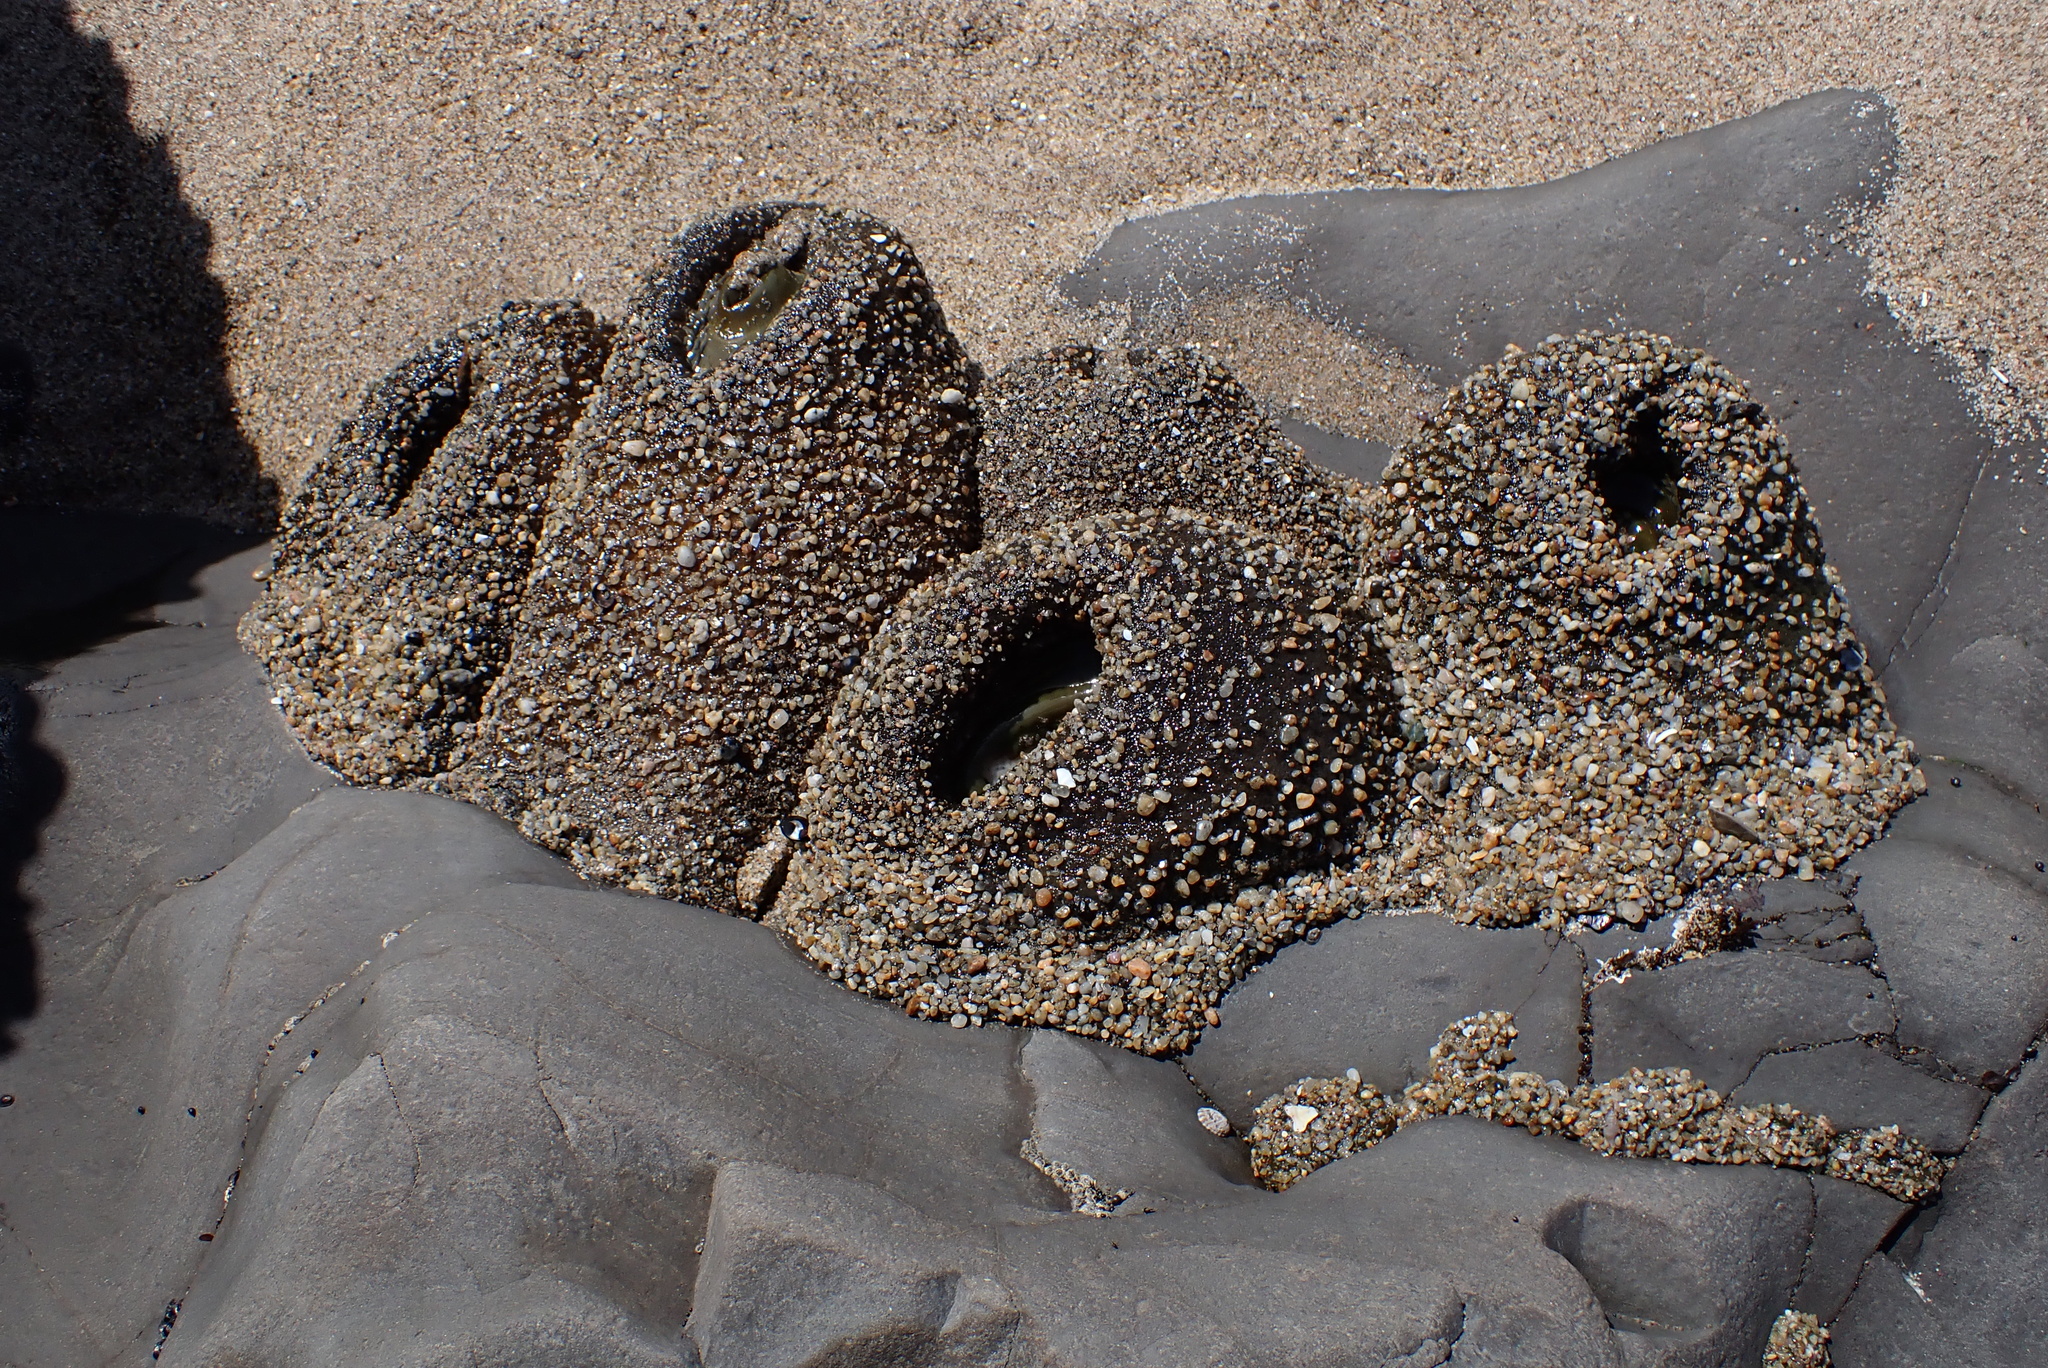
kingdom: Animalia
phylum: Cnidaria
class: Anthozoa
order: Actiniaria
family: Actiniidae
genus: Anthopleura
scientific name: Anthopleura xanthogrammica
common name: Giant green anemone
